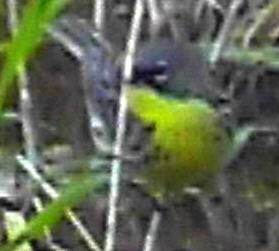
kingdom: Animalia
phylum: Chordata
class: Aves
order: Passeriformes
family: Parulidae
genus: Setophaga
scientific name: Setophaga kirtlandii
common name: Kirtland's warbler
